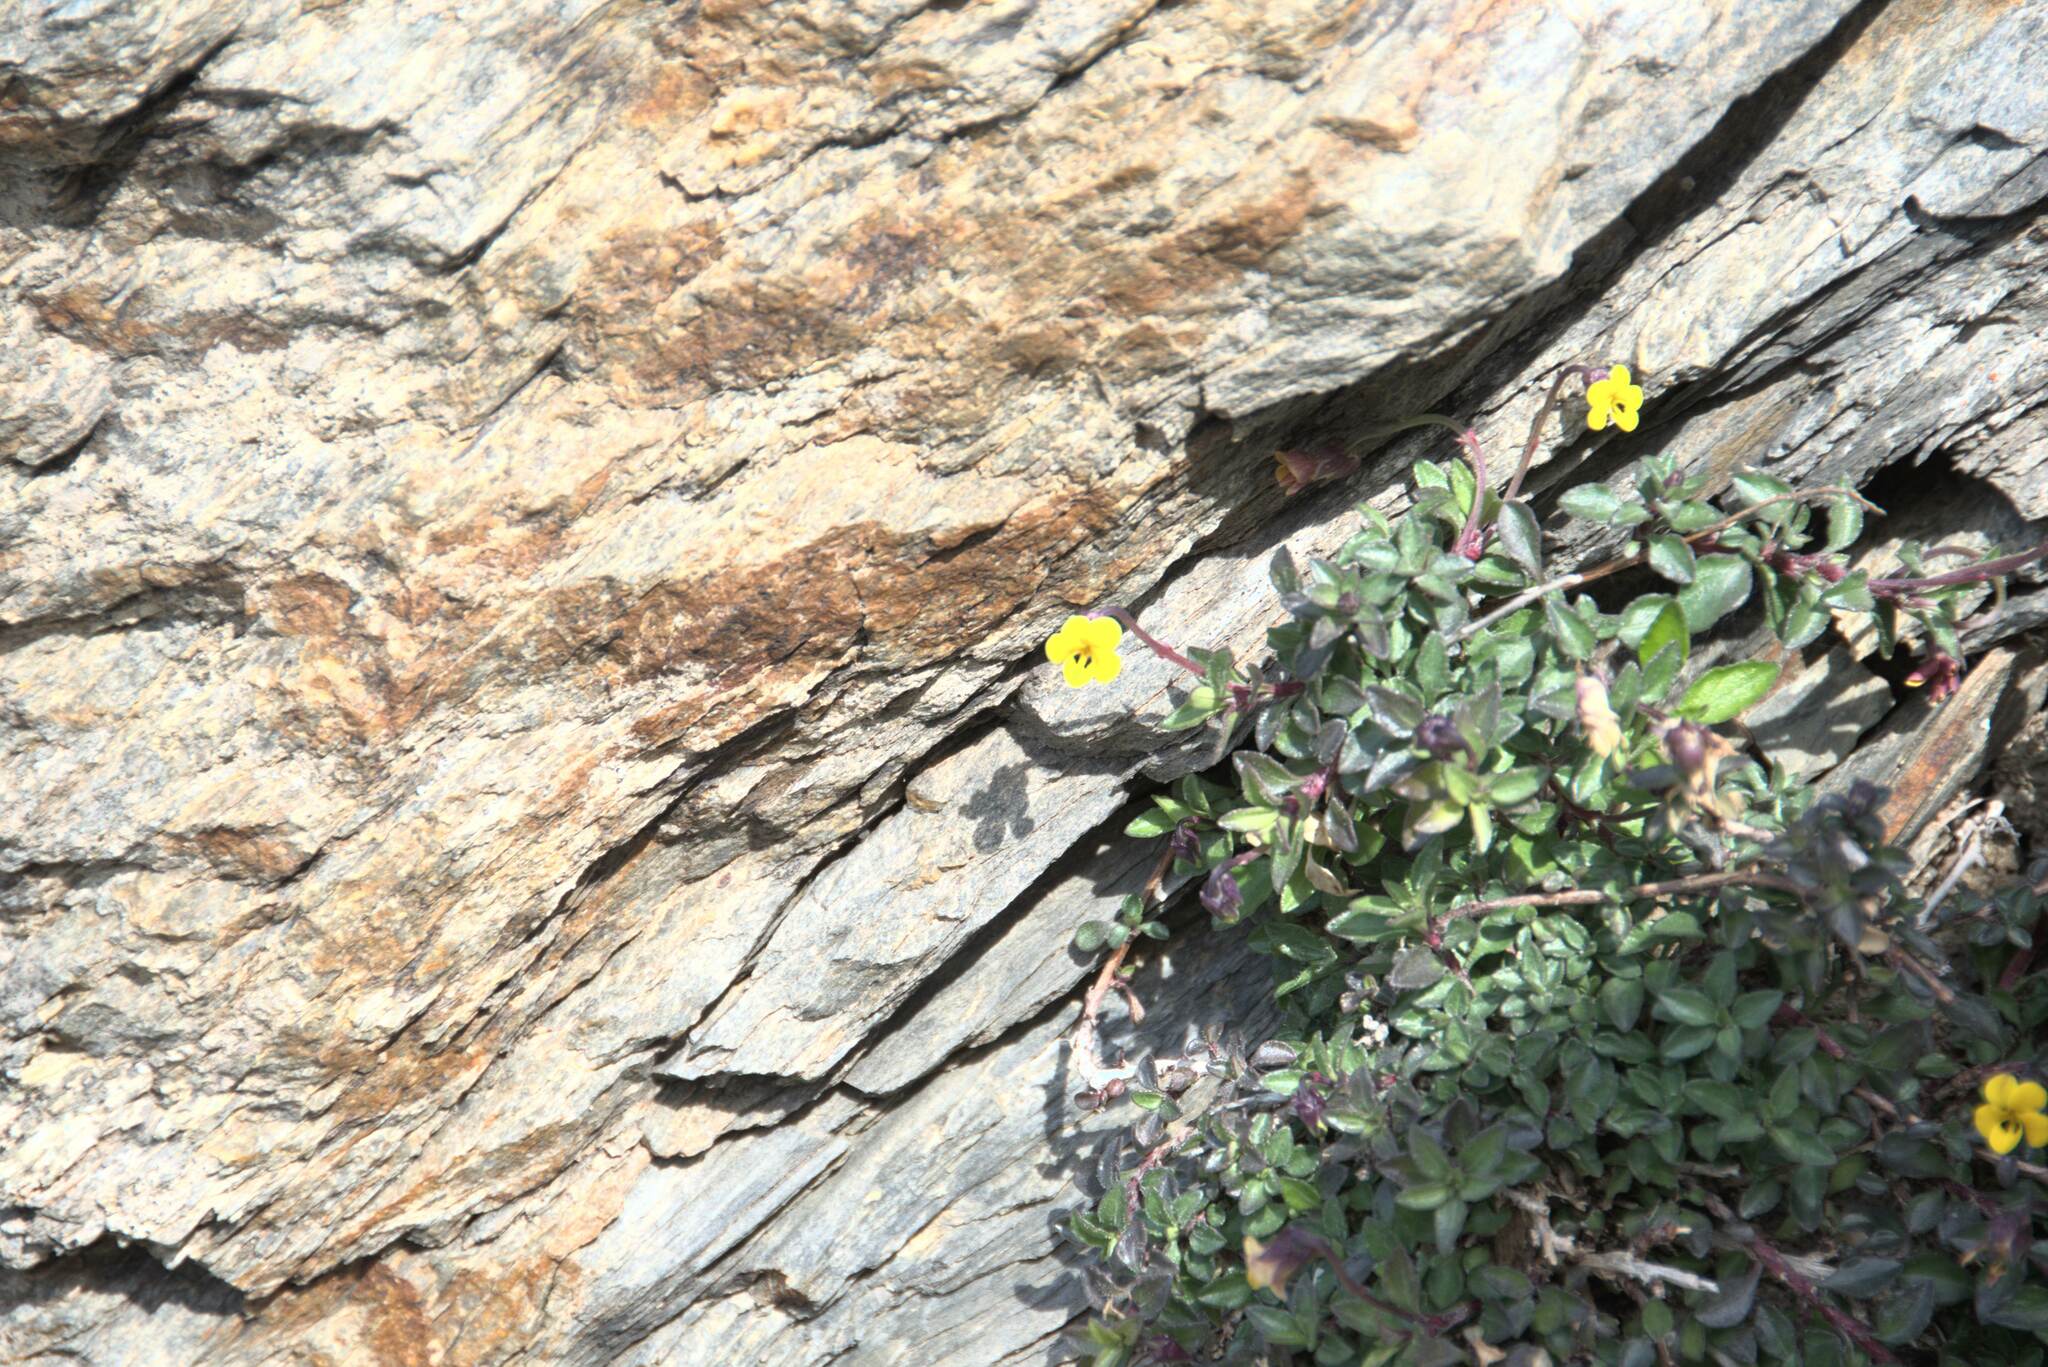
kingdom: Plantae
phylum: Tracheophyta
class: Magnoliopsida
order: Malpighiales
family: Violaceae
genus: Viola
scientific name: Viola scorpiuroides
